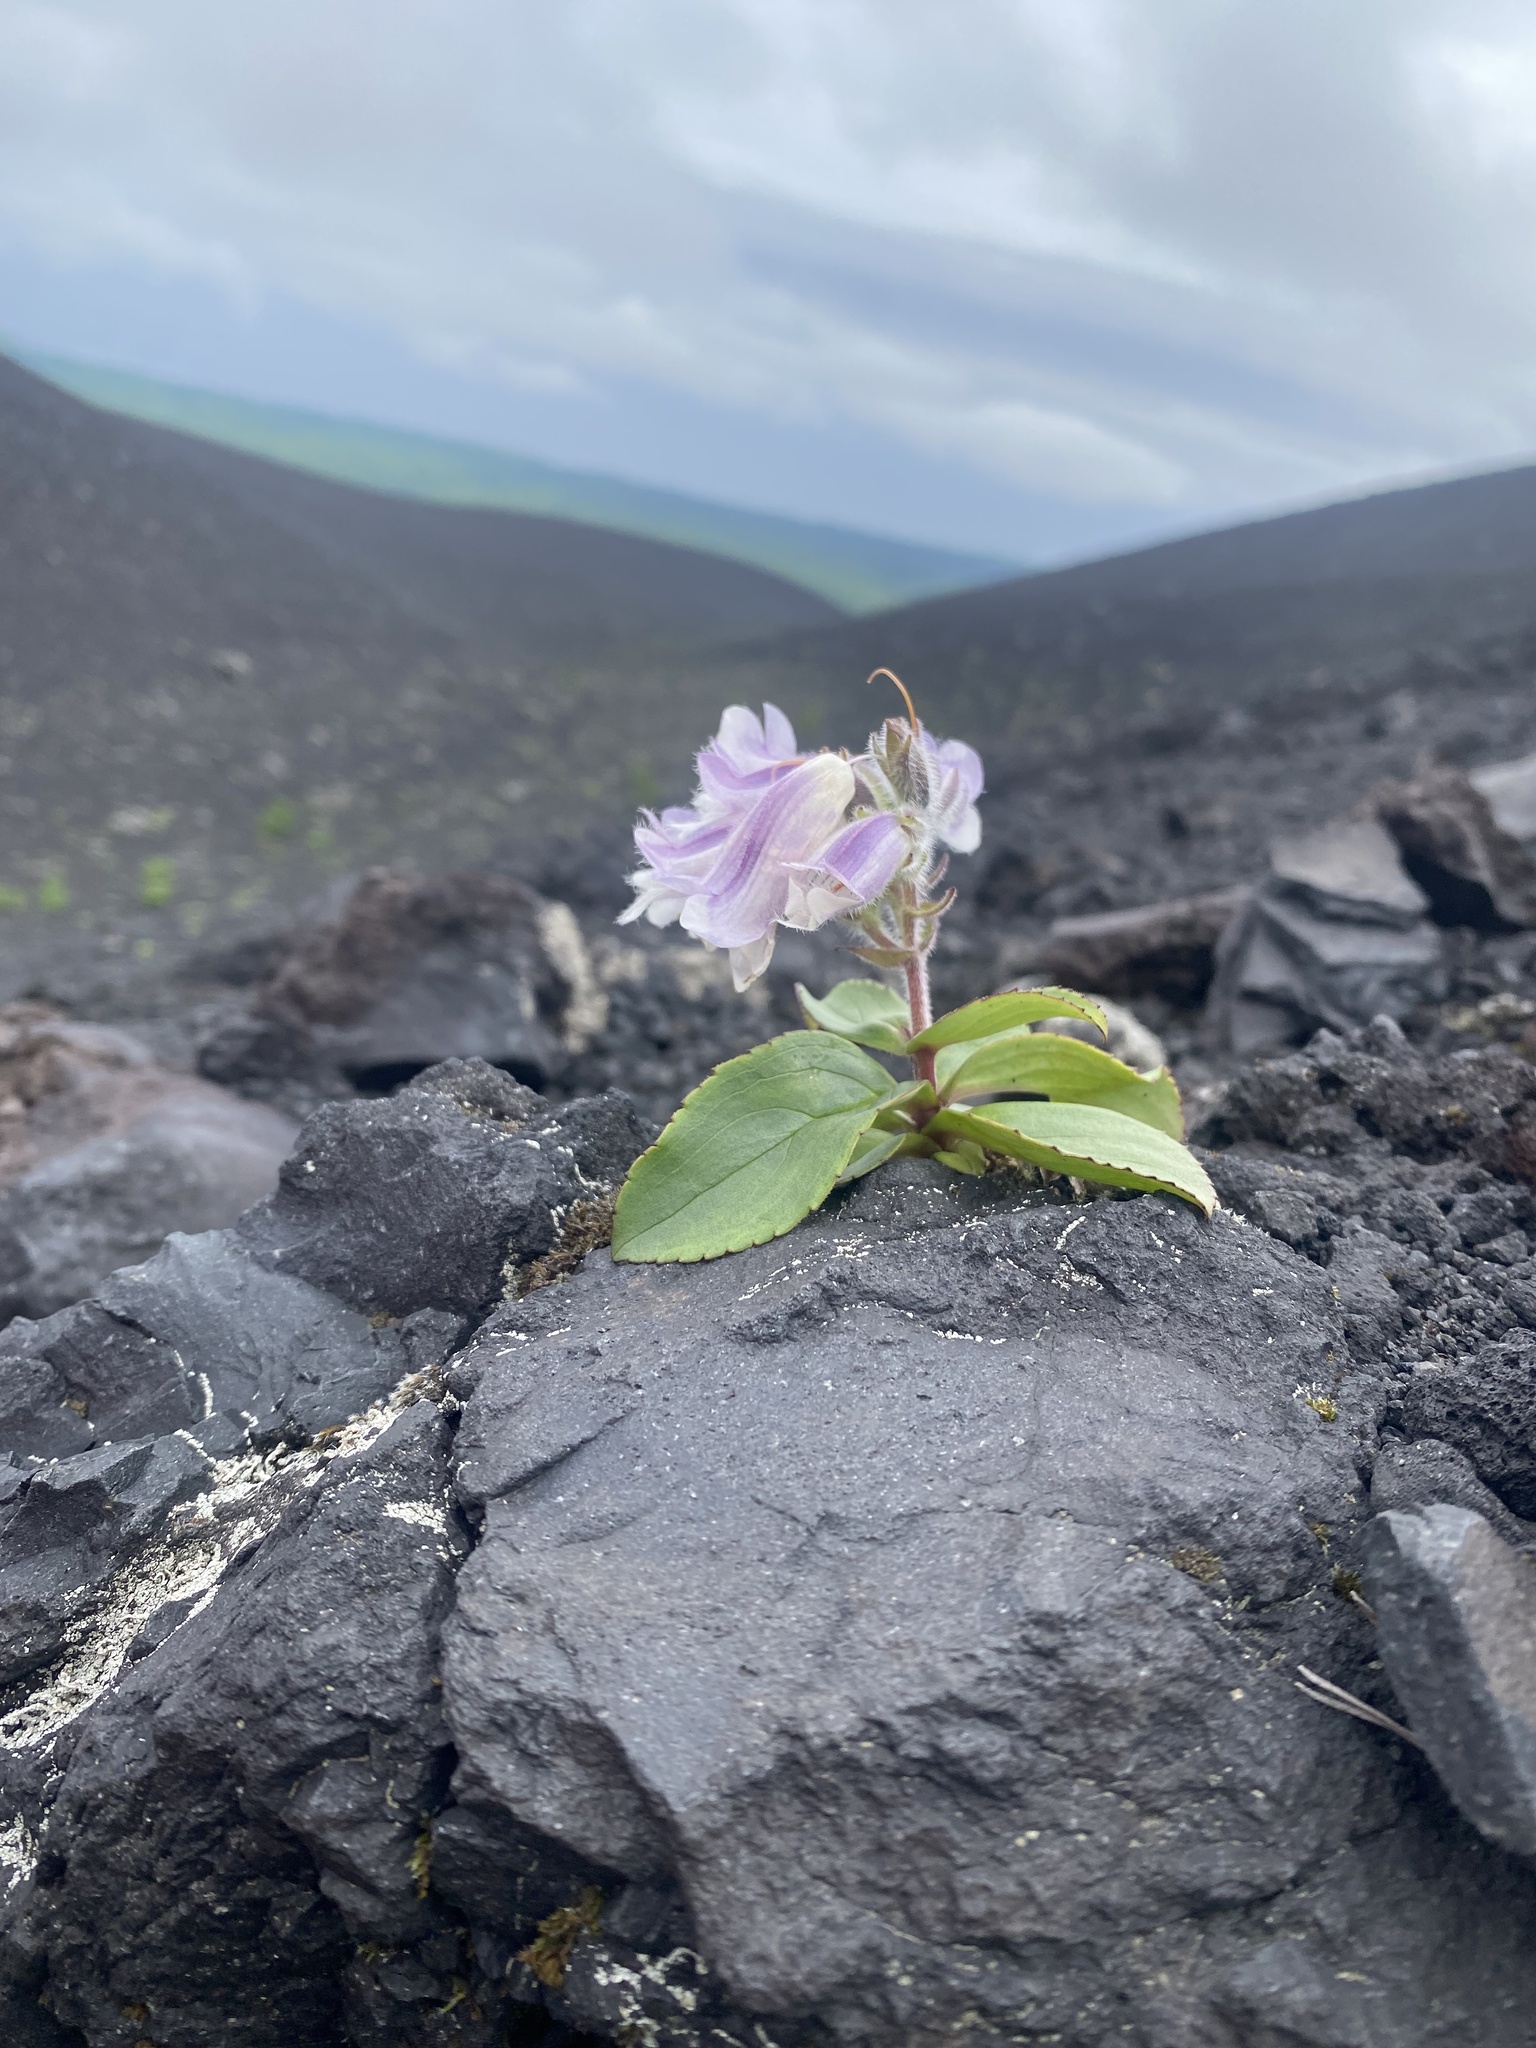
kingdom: Plantae
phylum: Tracheophyta
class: Magnoliopsida
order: Lamiales
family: Plantaginaceae
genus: Pennellianthus
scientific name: Pennellianthus frutescens
